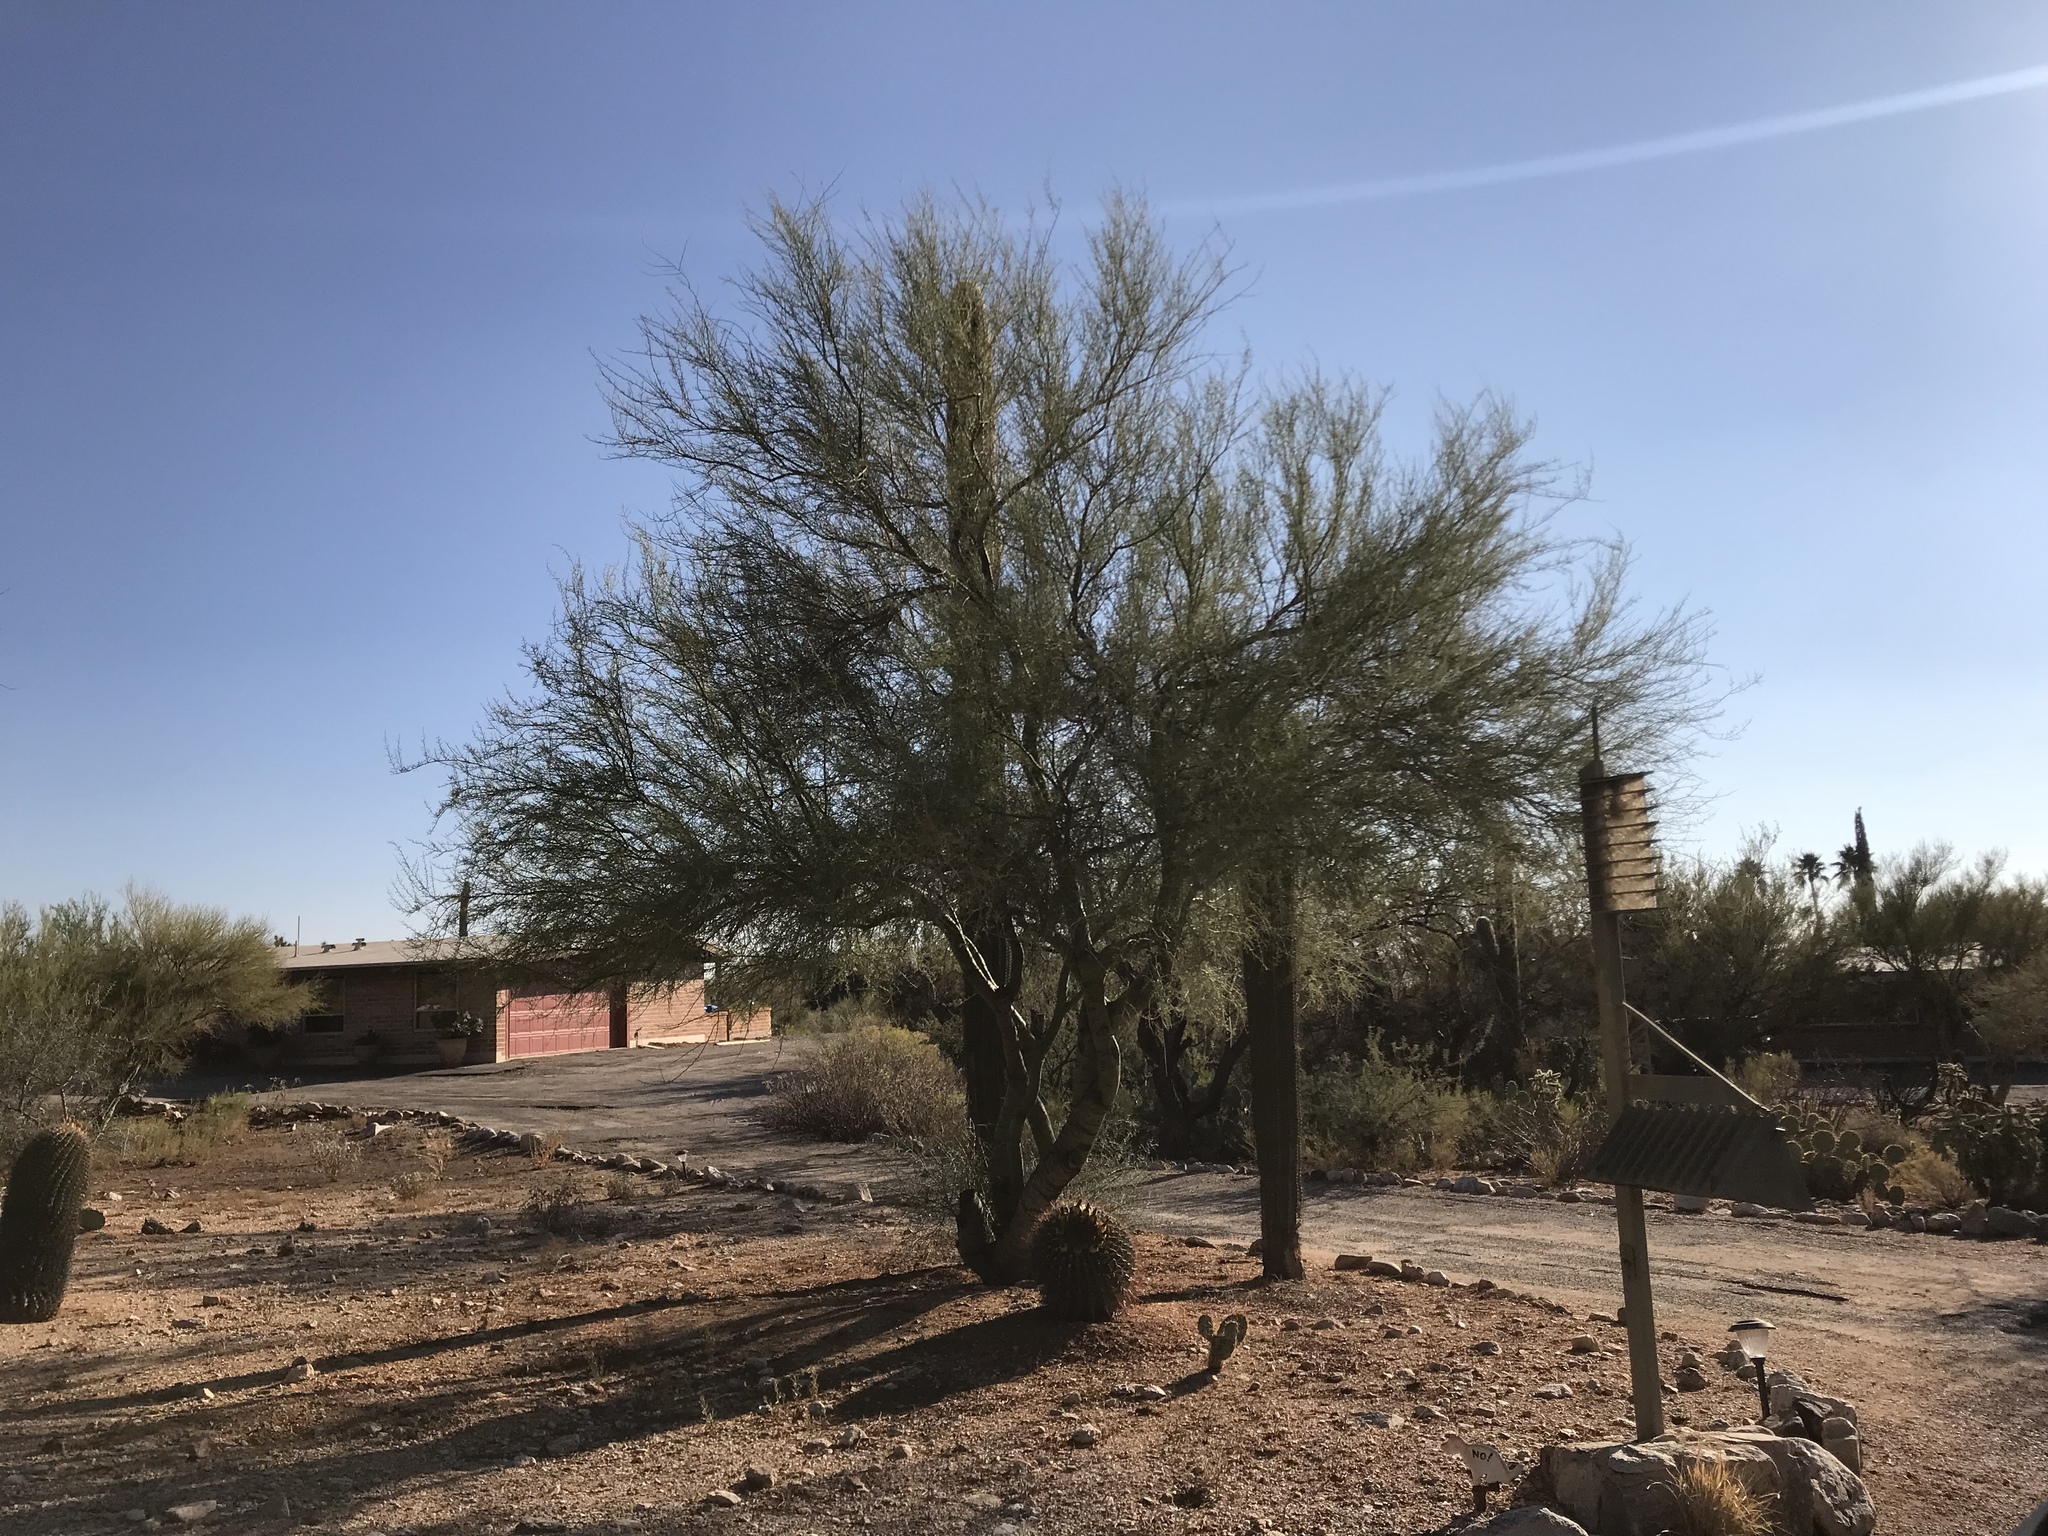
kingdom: Plantae
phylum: Tracheophyta
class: Magnoliopsida
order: Fabales
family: Fabaceae
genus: Parkinsonia
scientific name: Parkinsonia microphylla
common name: Yellow paloverde
